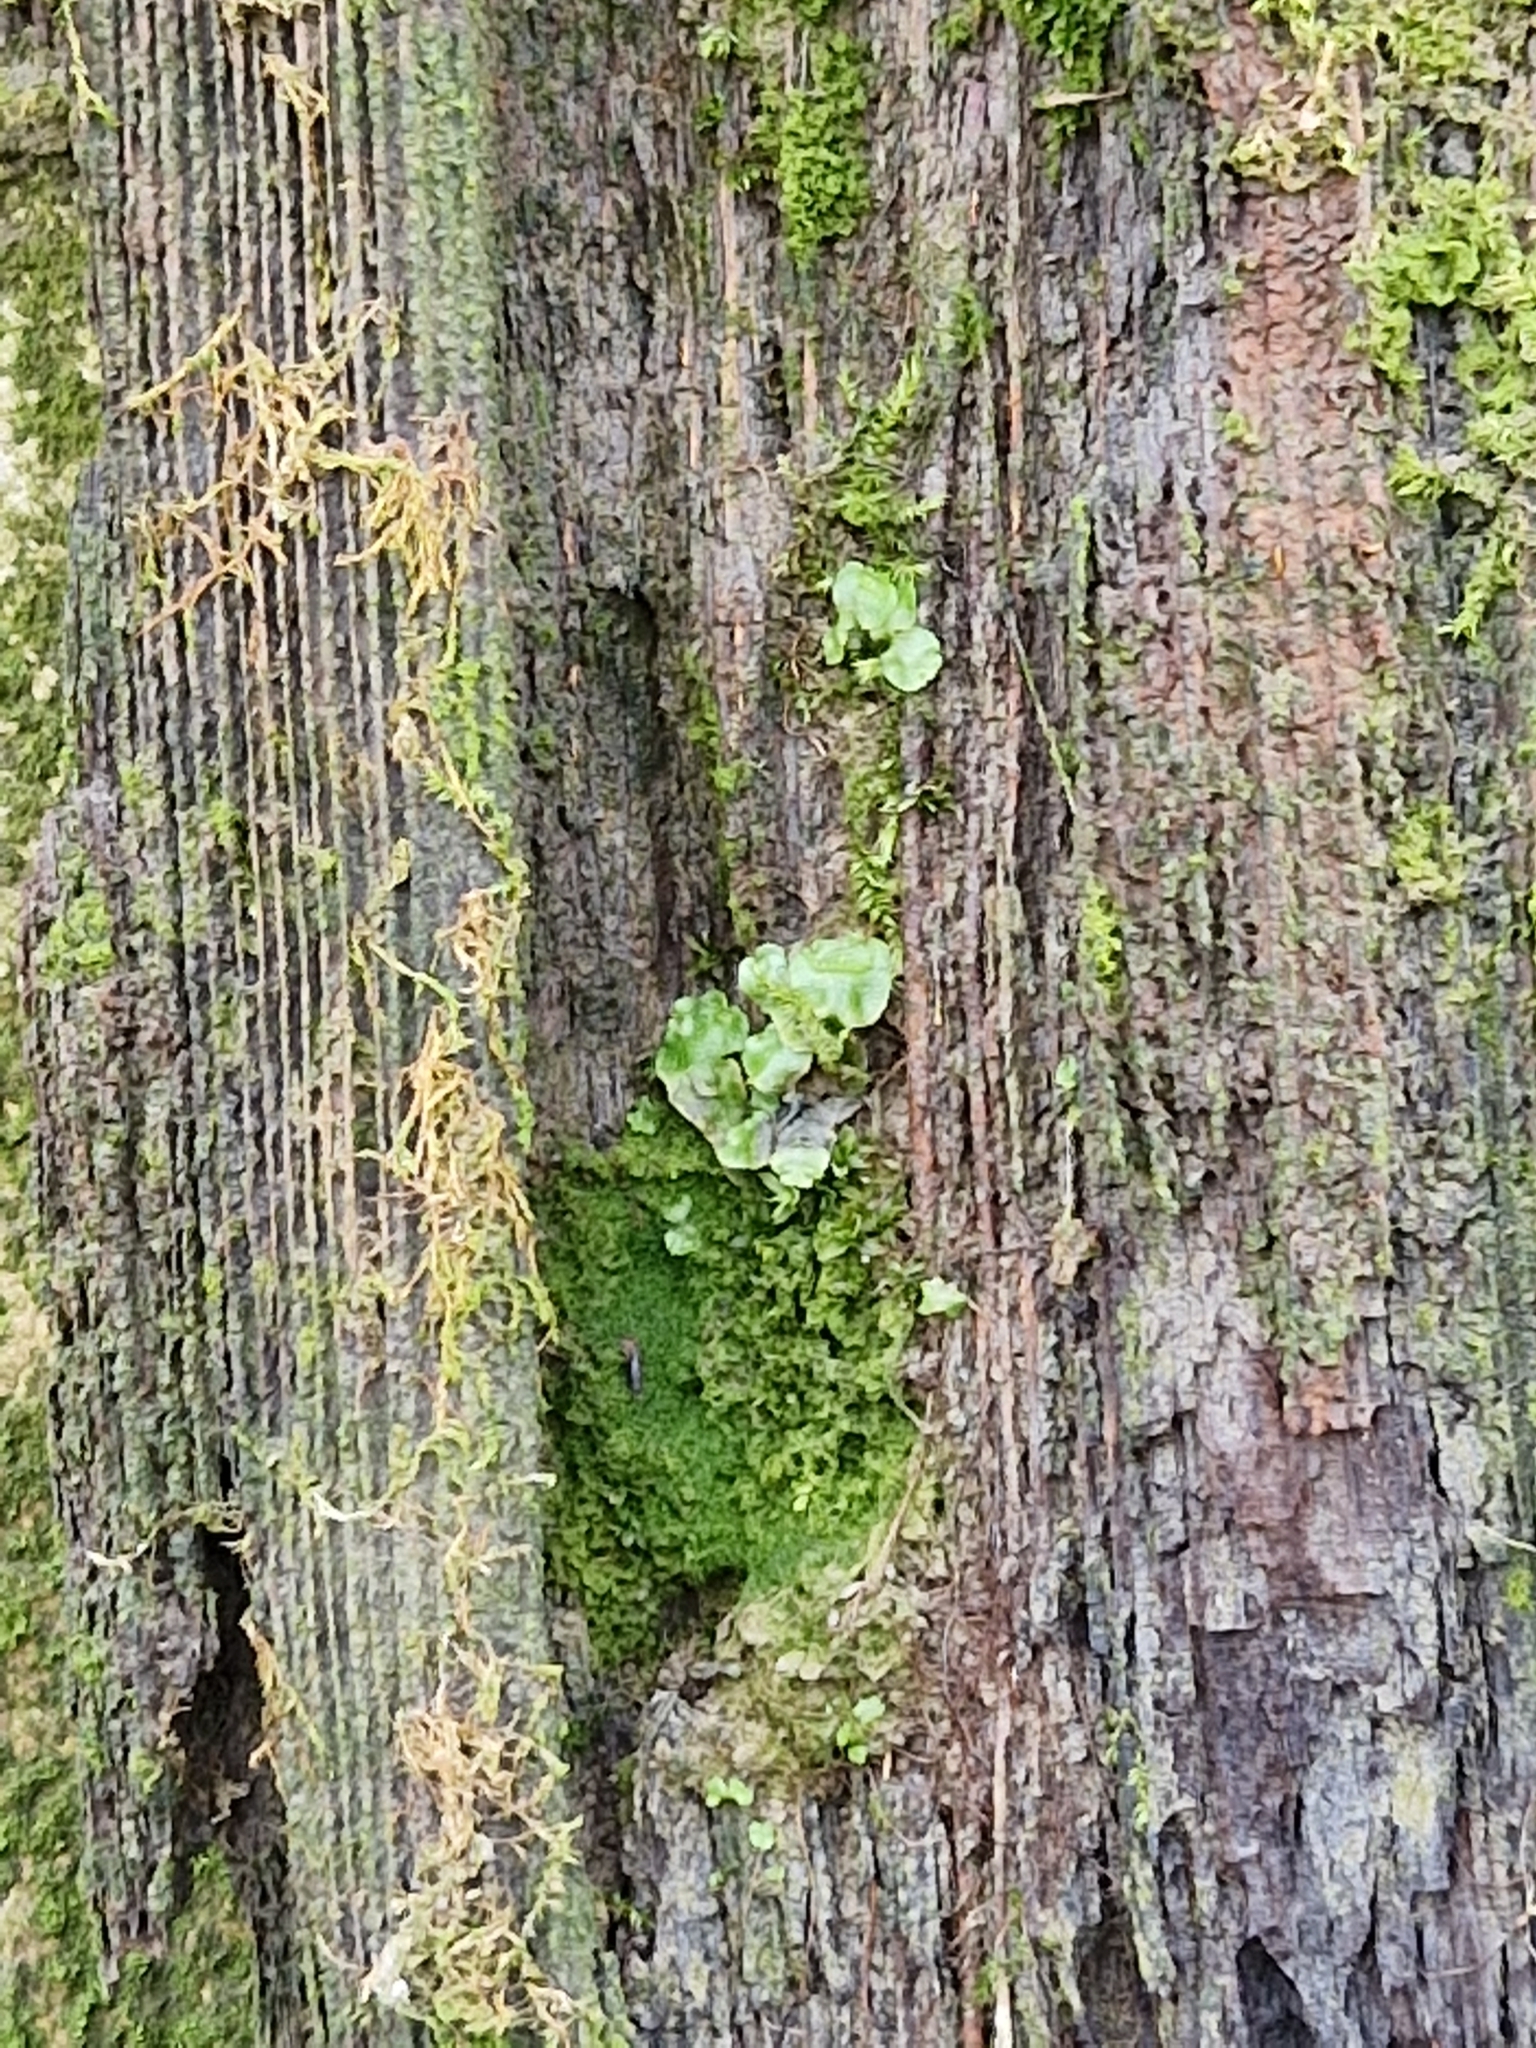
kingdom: Plantae
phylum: Marchantiophyta
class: Marchantiopsida
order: Lunulariales
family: Lunulariaceae
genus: Lunularia
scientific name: Lunularia cruciata
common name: Crescent-cup liverwort
